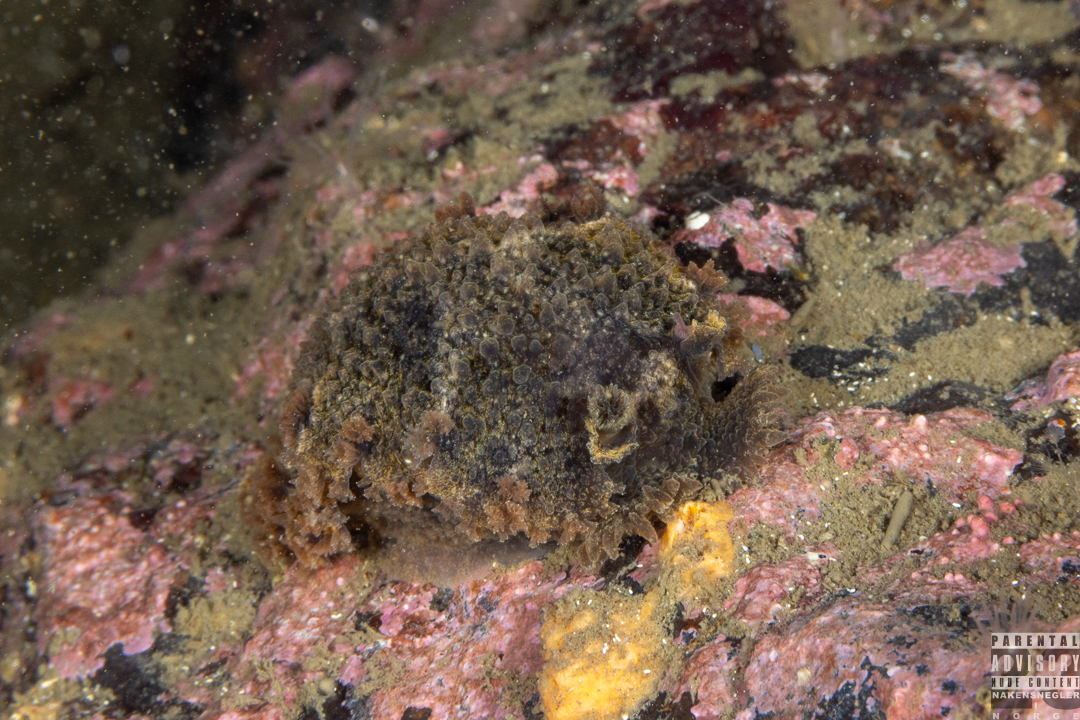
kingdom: Animalia
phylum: Mollusca
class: Gastropoda
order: Nudibranchia
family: Tritoniidae
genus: Tritonia
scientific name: Tritonia hombergii
